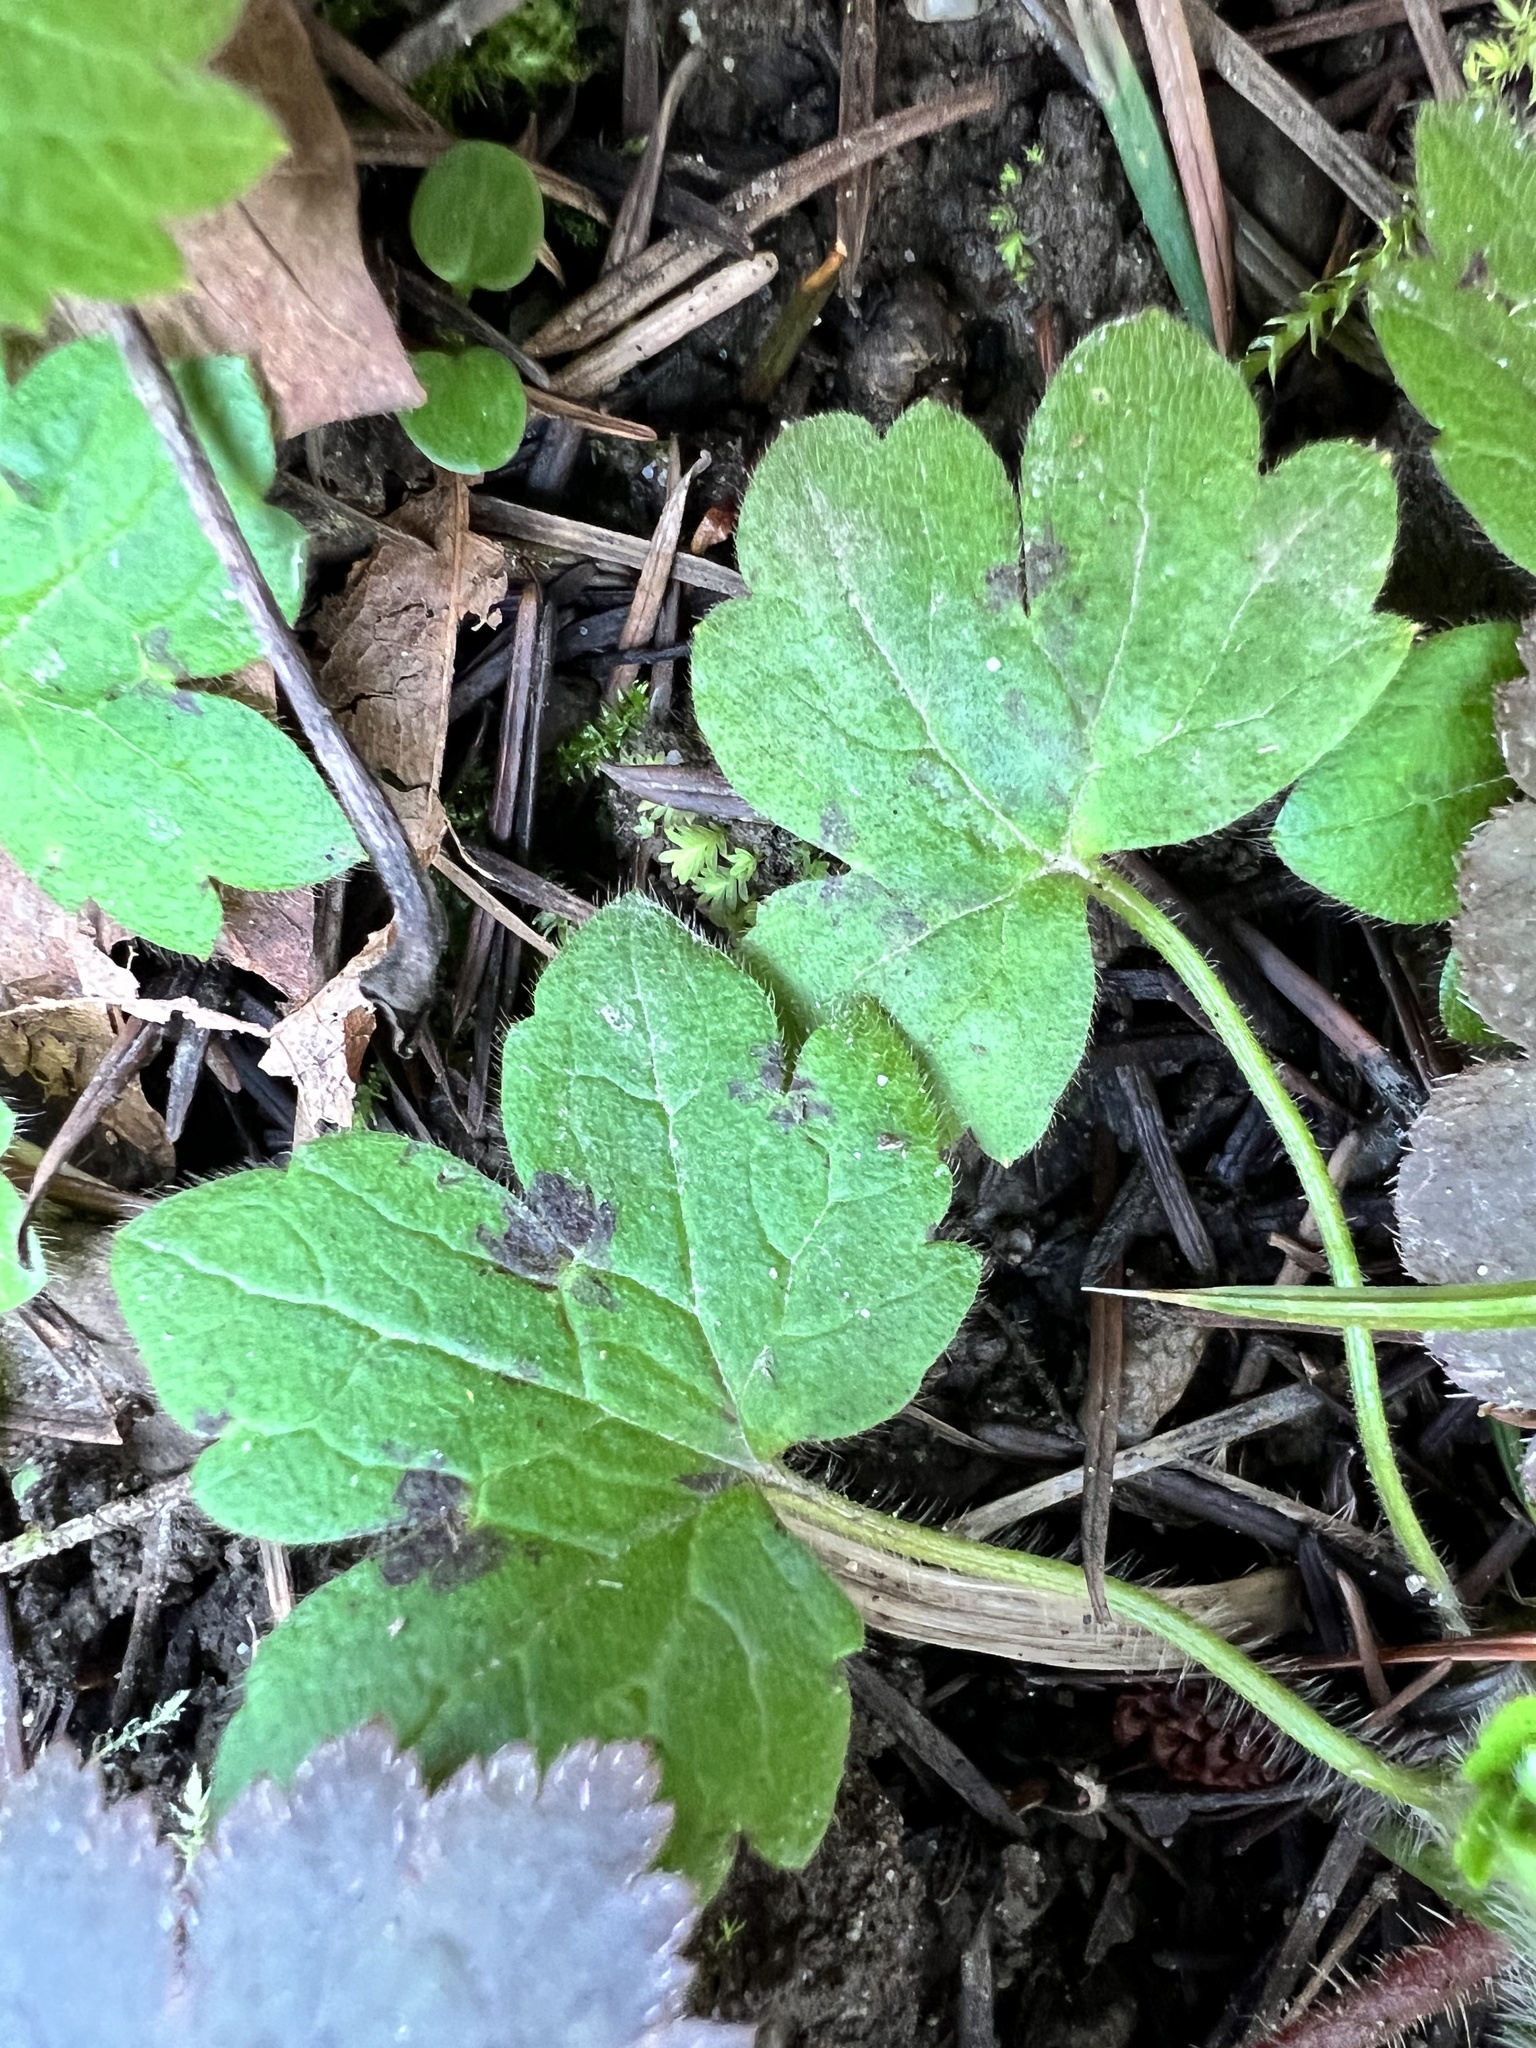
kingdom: Plantae
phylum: Tracheophyta
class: Magnoliopsida
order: Ranunculales
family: Ranunculaceae
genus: Ranunculus
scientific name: Ranunculus uncinatus
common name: Little buttercup
